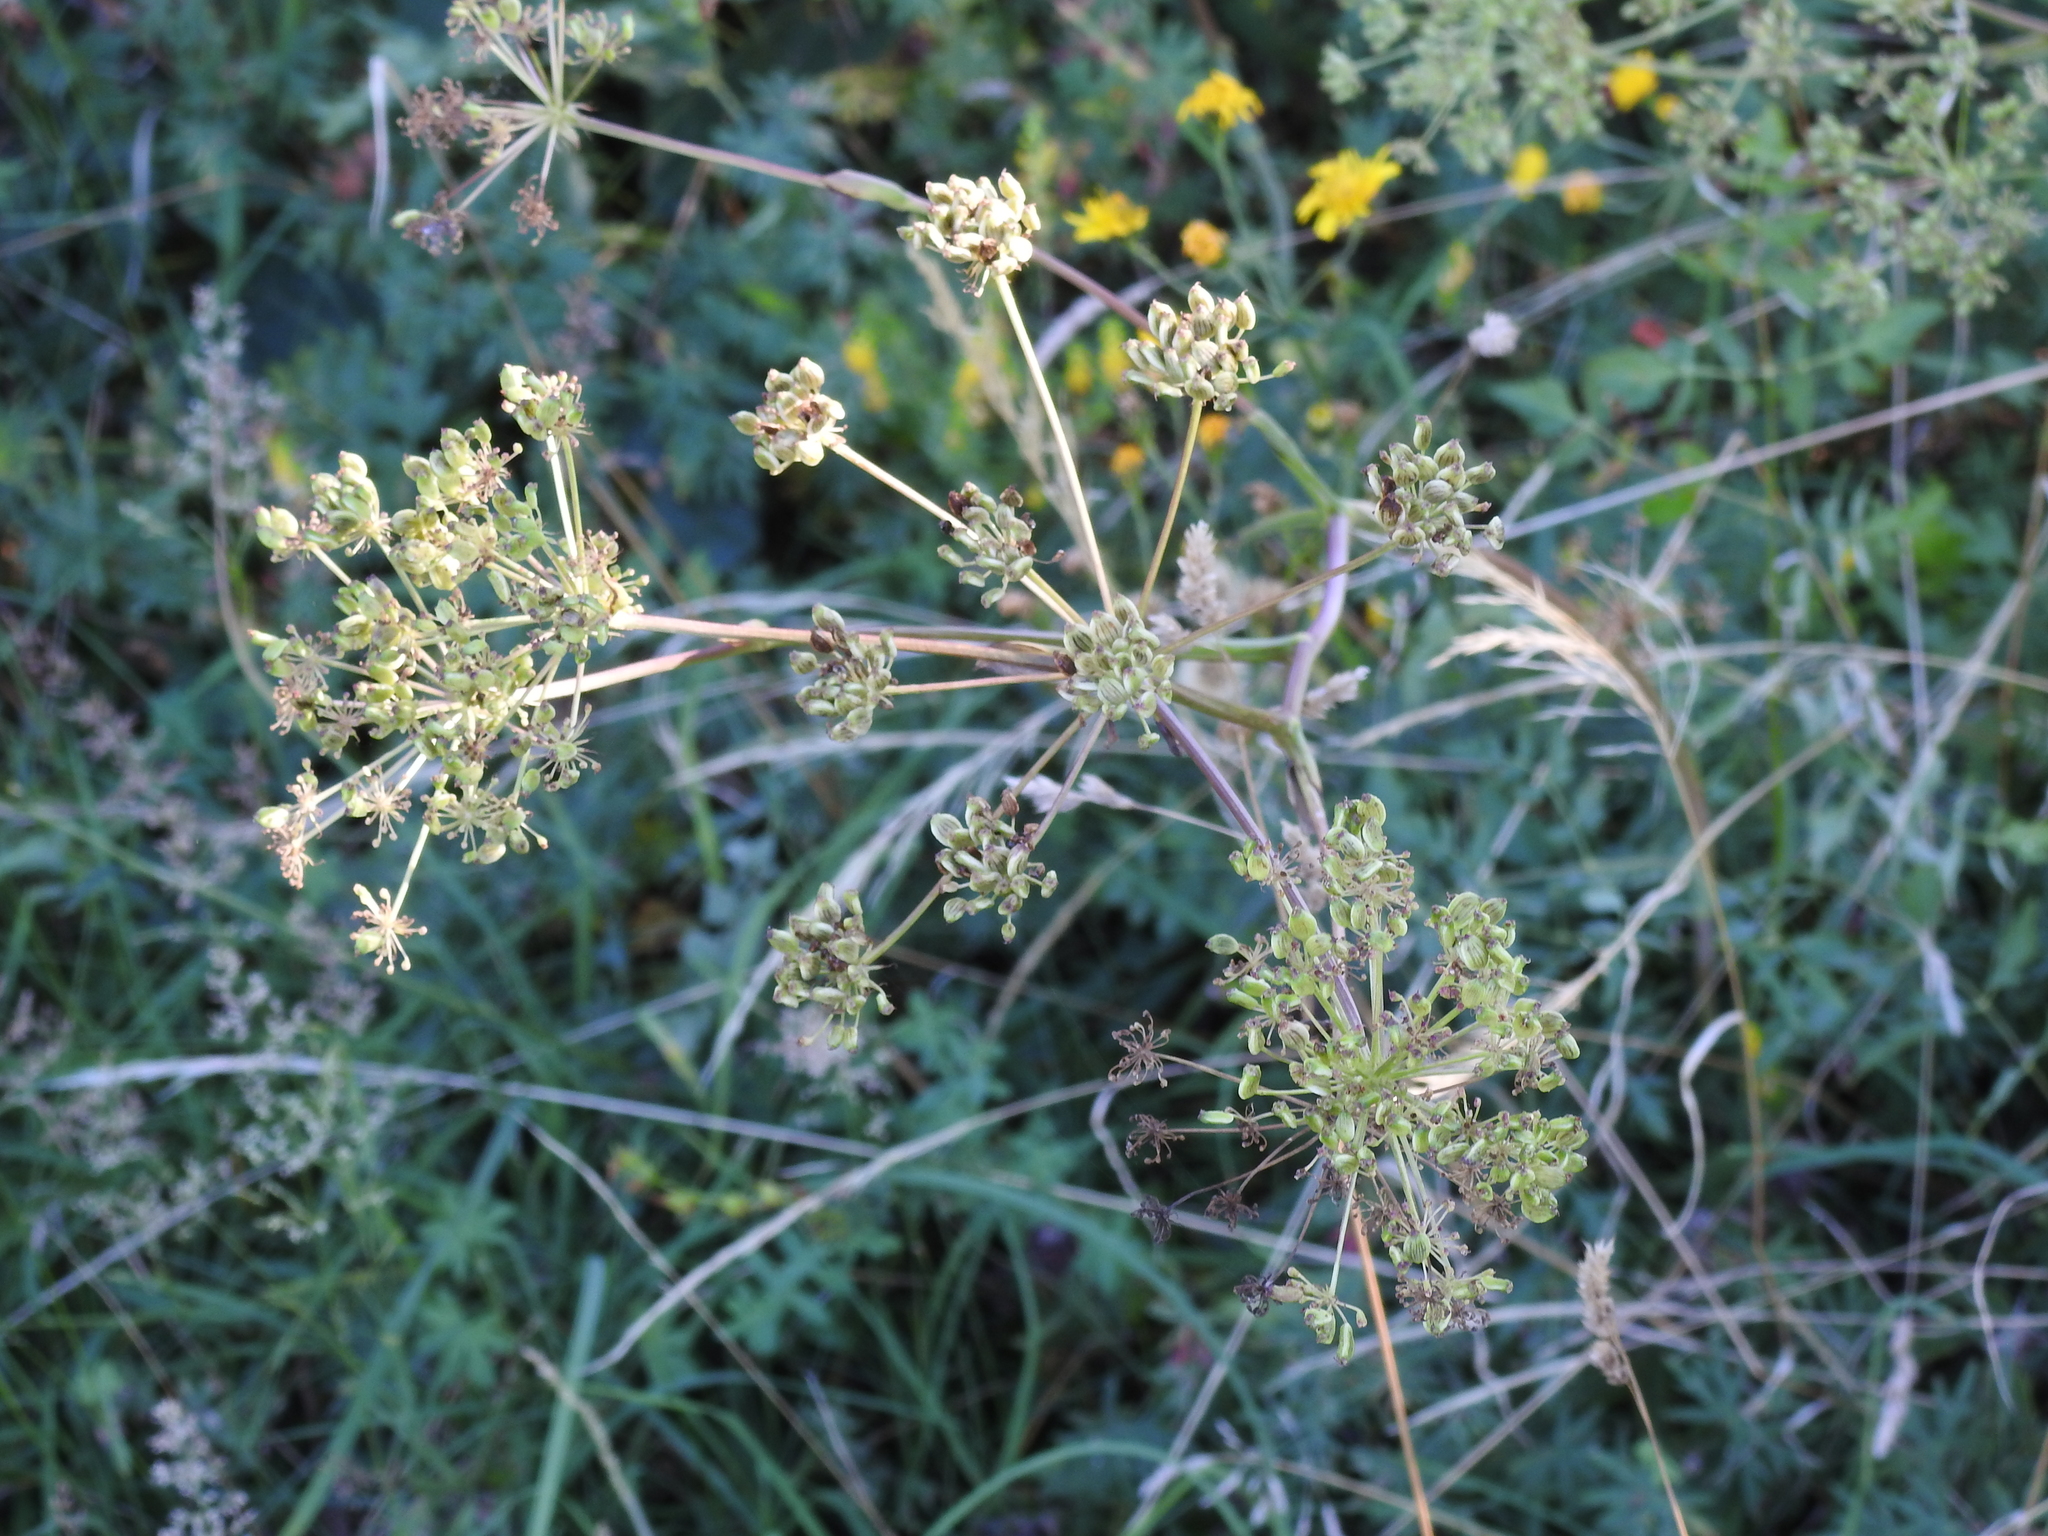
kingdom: Plantae
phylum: Tracheophyta
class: Magnoliopsida
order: Apiales
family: Apiaceae
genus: Cervaria
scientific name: Cervaria rivini
